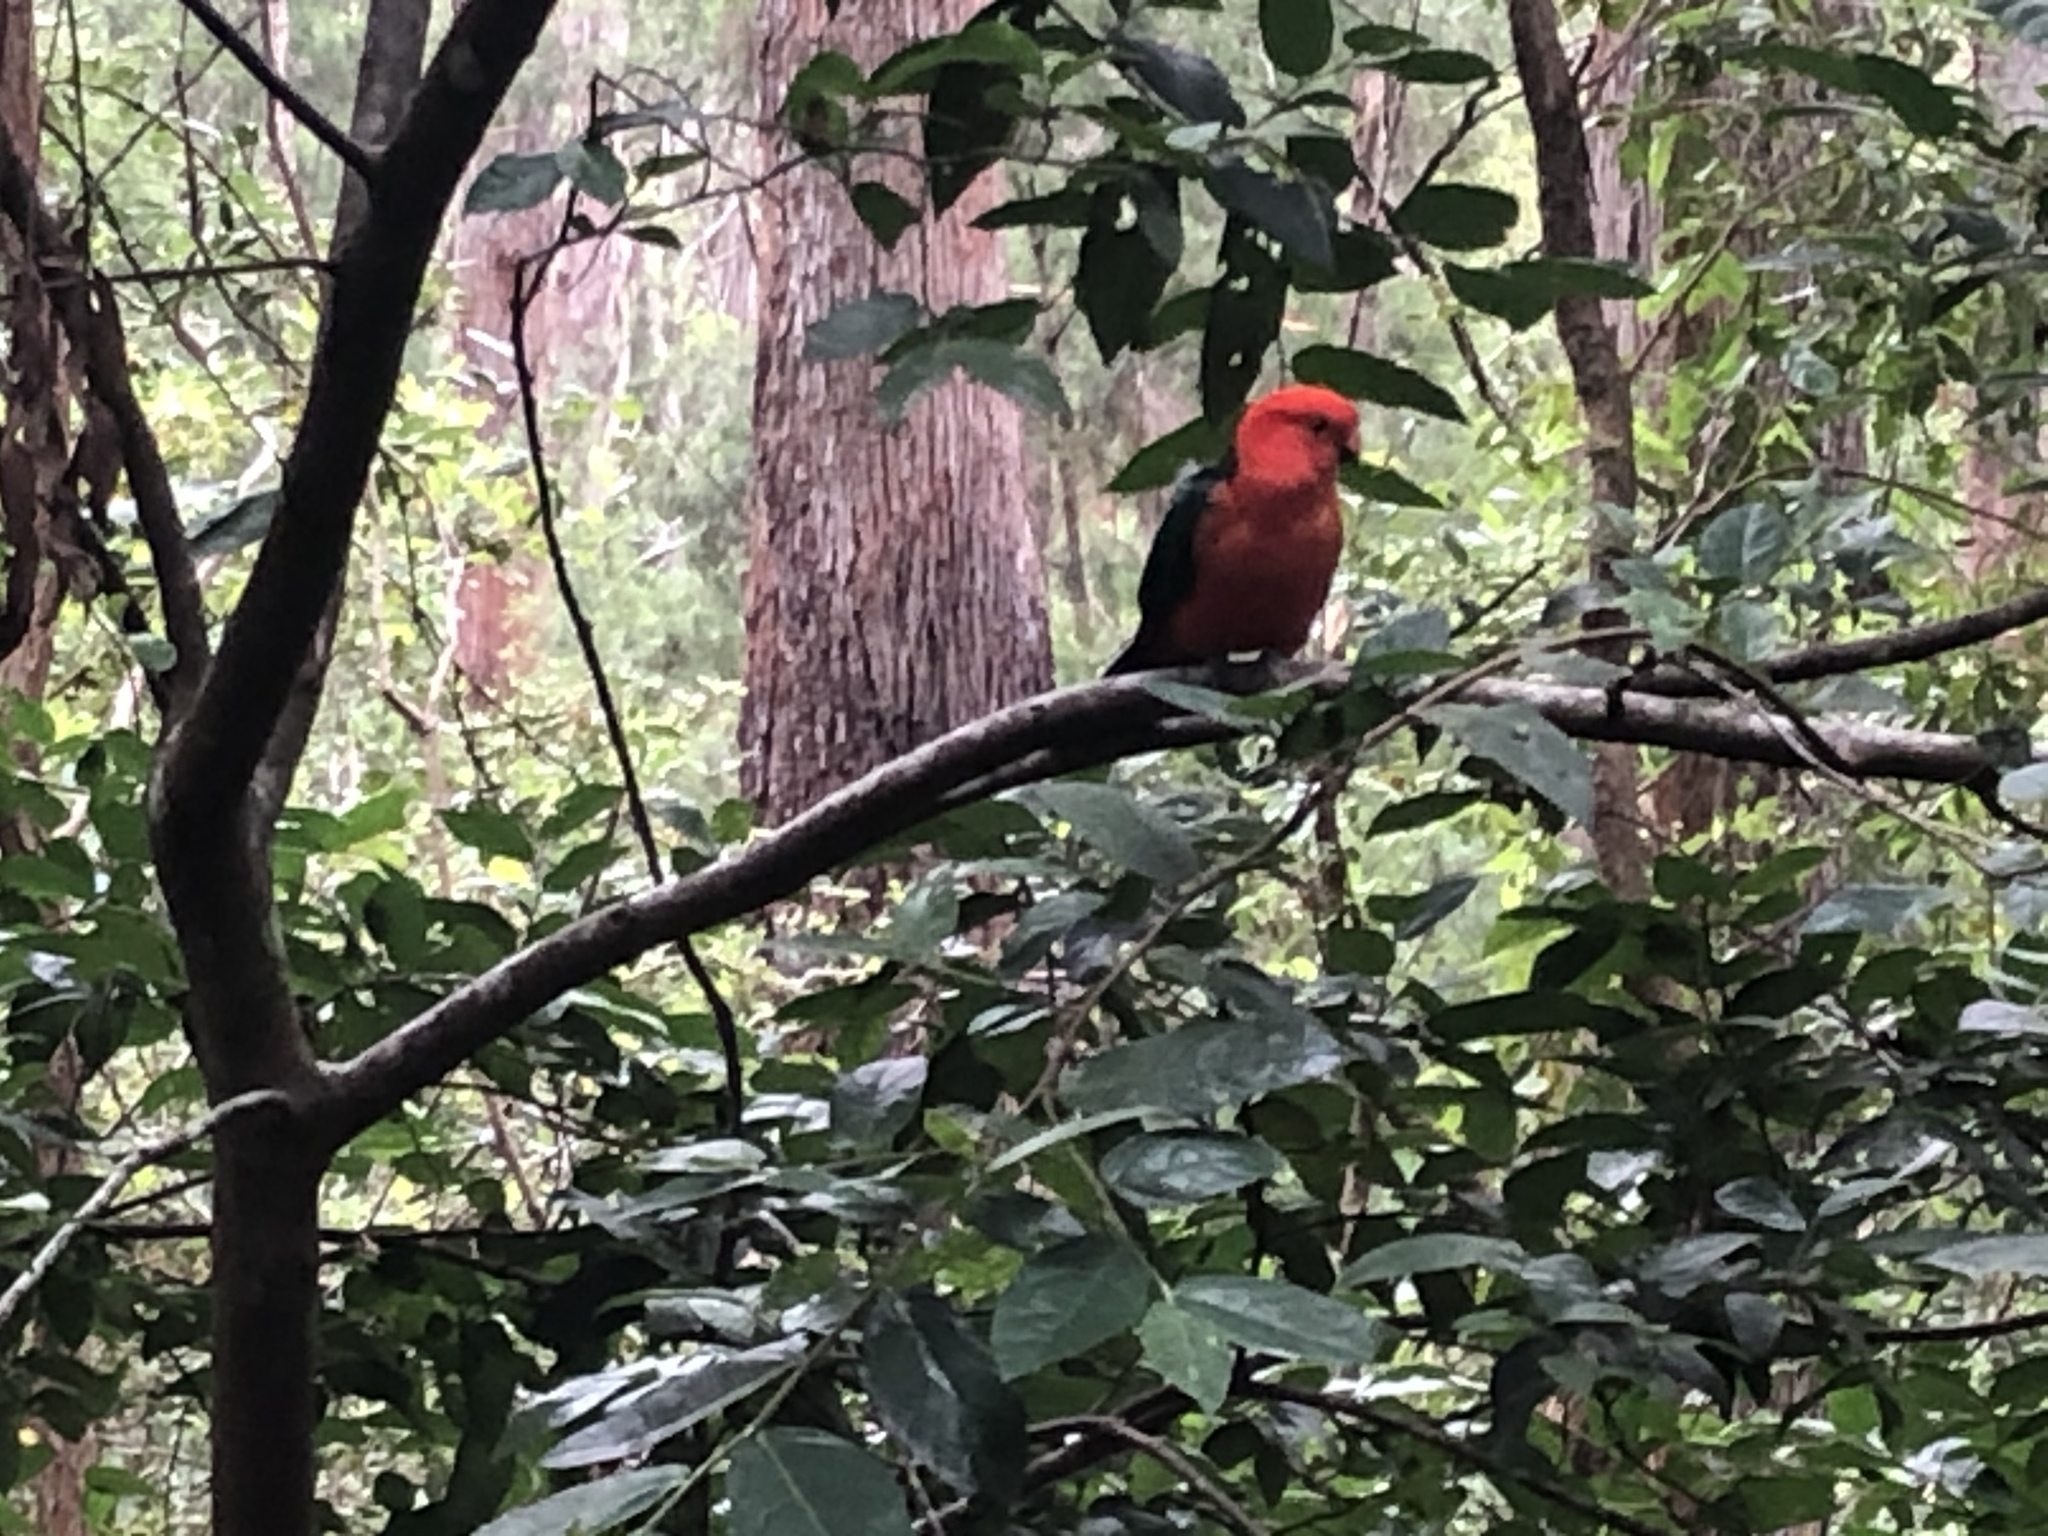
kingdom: Animalia
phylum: Chordata
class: Aves
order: Psittaciformes
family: Psittacidae
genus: Alisterus
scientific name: Alisterus scapularis
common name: Australian king parrot
